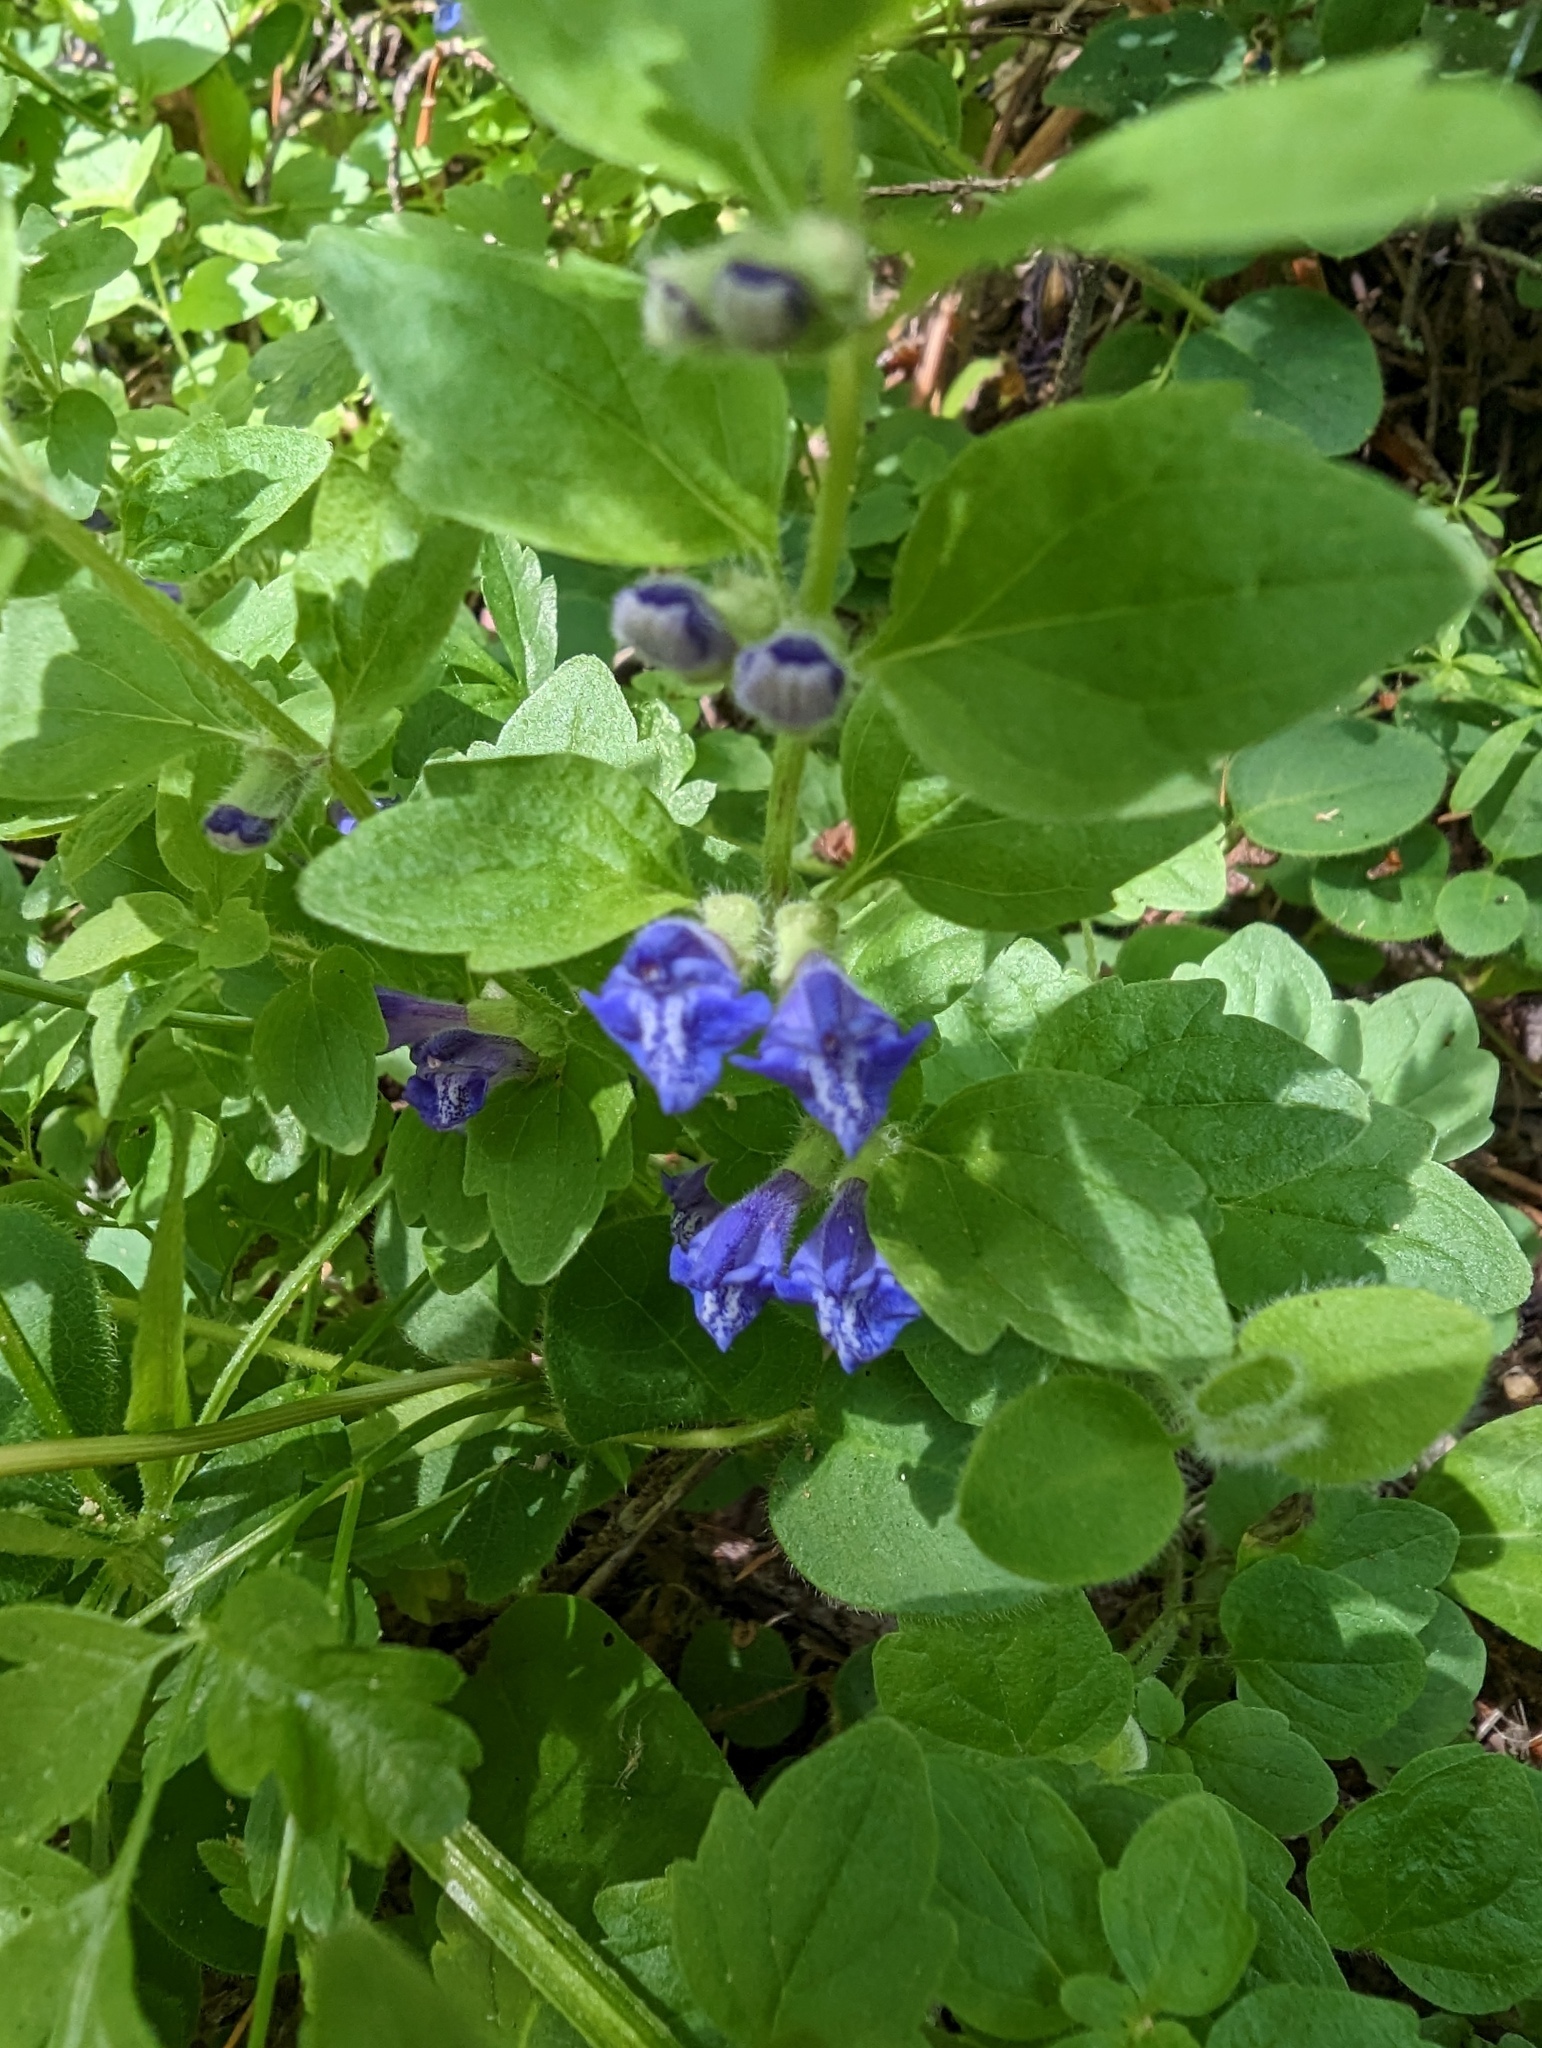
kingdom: Plantae
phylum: Tracheophyta
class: Magnoliopsida
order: Lamiales
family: Lamiaceae
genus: Scutellaria
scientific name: Scutellaria tuberosa
